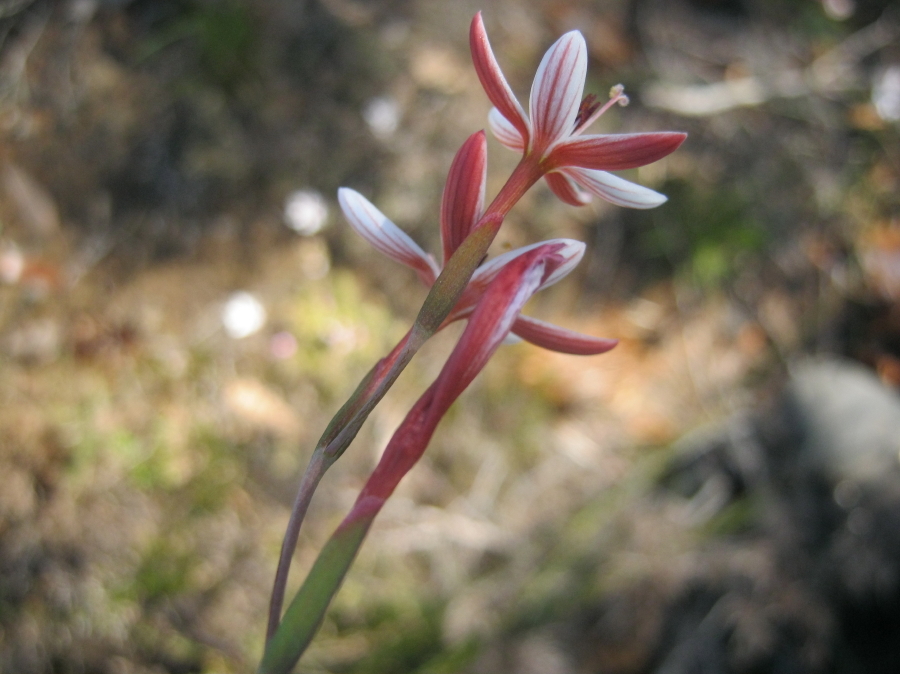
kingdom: Plantae
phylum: Tracheophyta
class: Liliopsida
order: Asparagales
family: Iridaceae
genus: Geissorhiza
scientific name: Geissorhiza ovata
